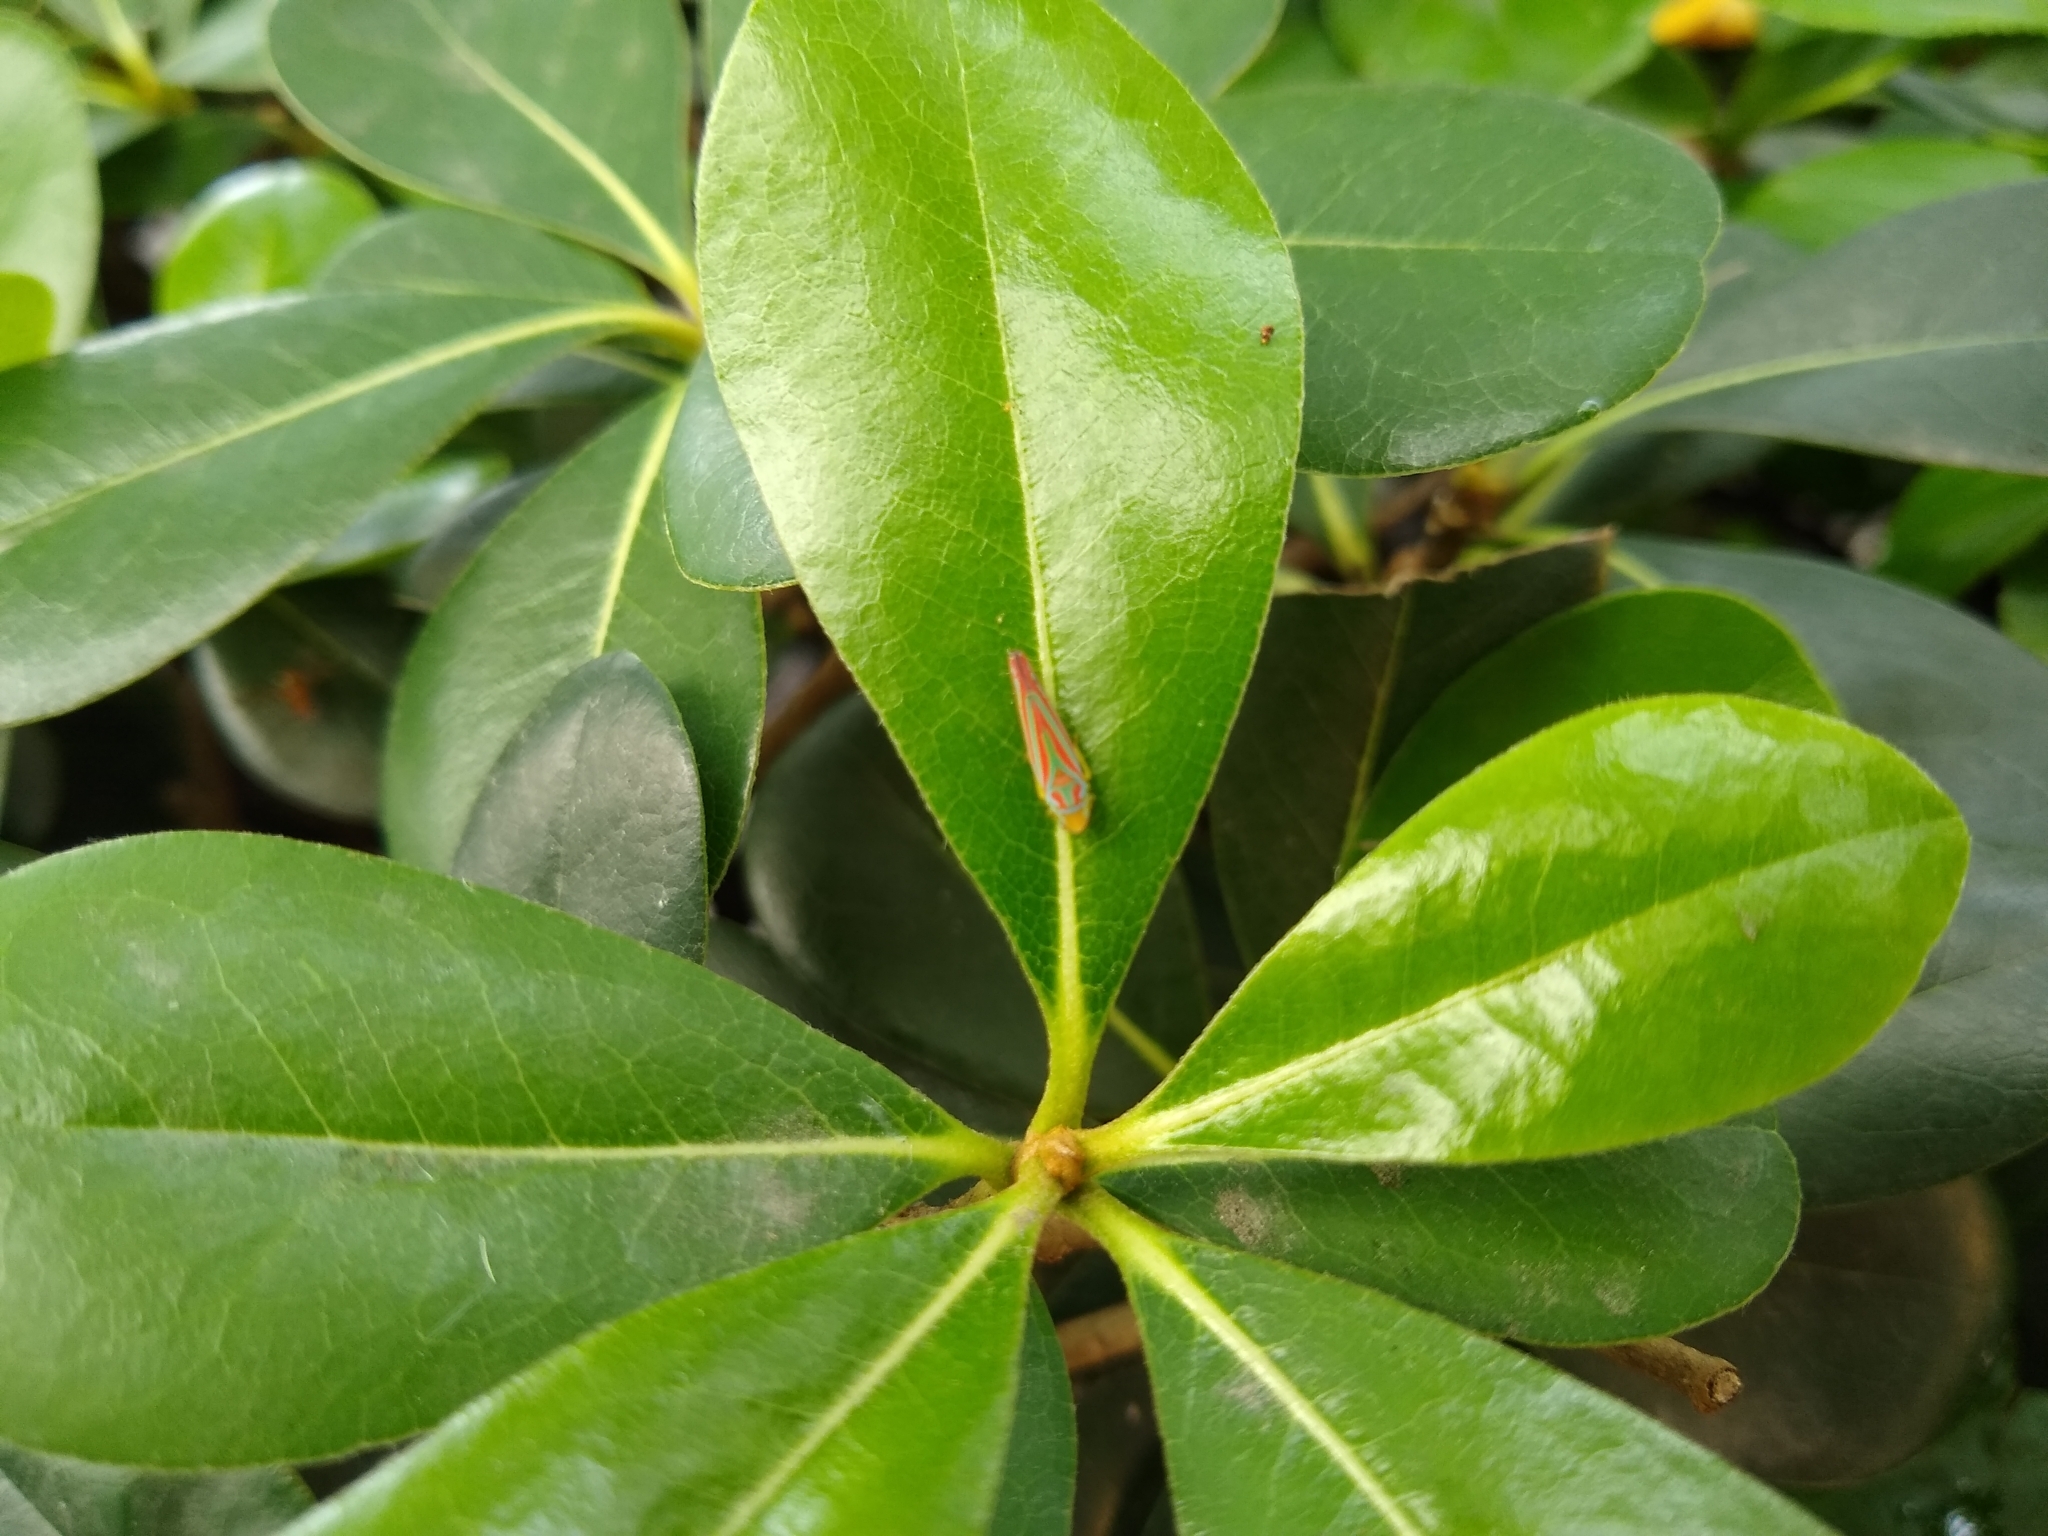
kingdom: Animalia
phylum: Arthropoda
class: Insecta
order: Hemiptera
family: Cicadellidae
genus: Graphocephala
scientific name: Graphocephala coccinea
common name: Candy-striped leafhopper
